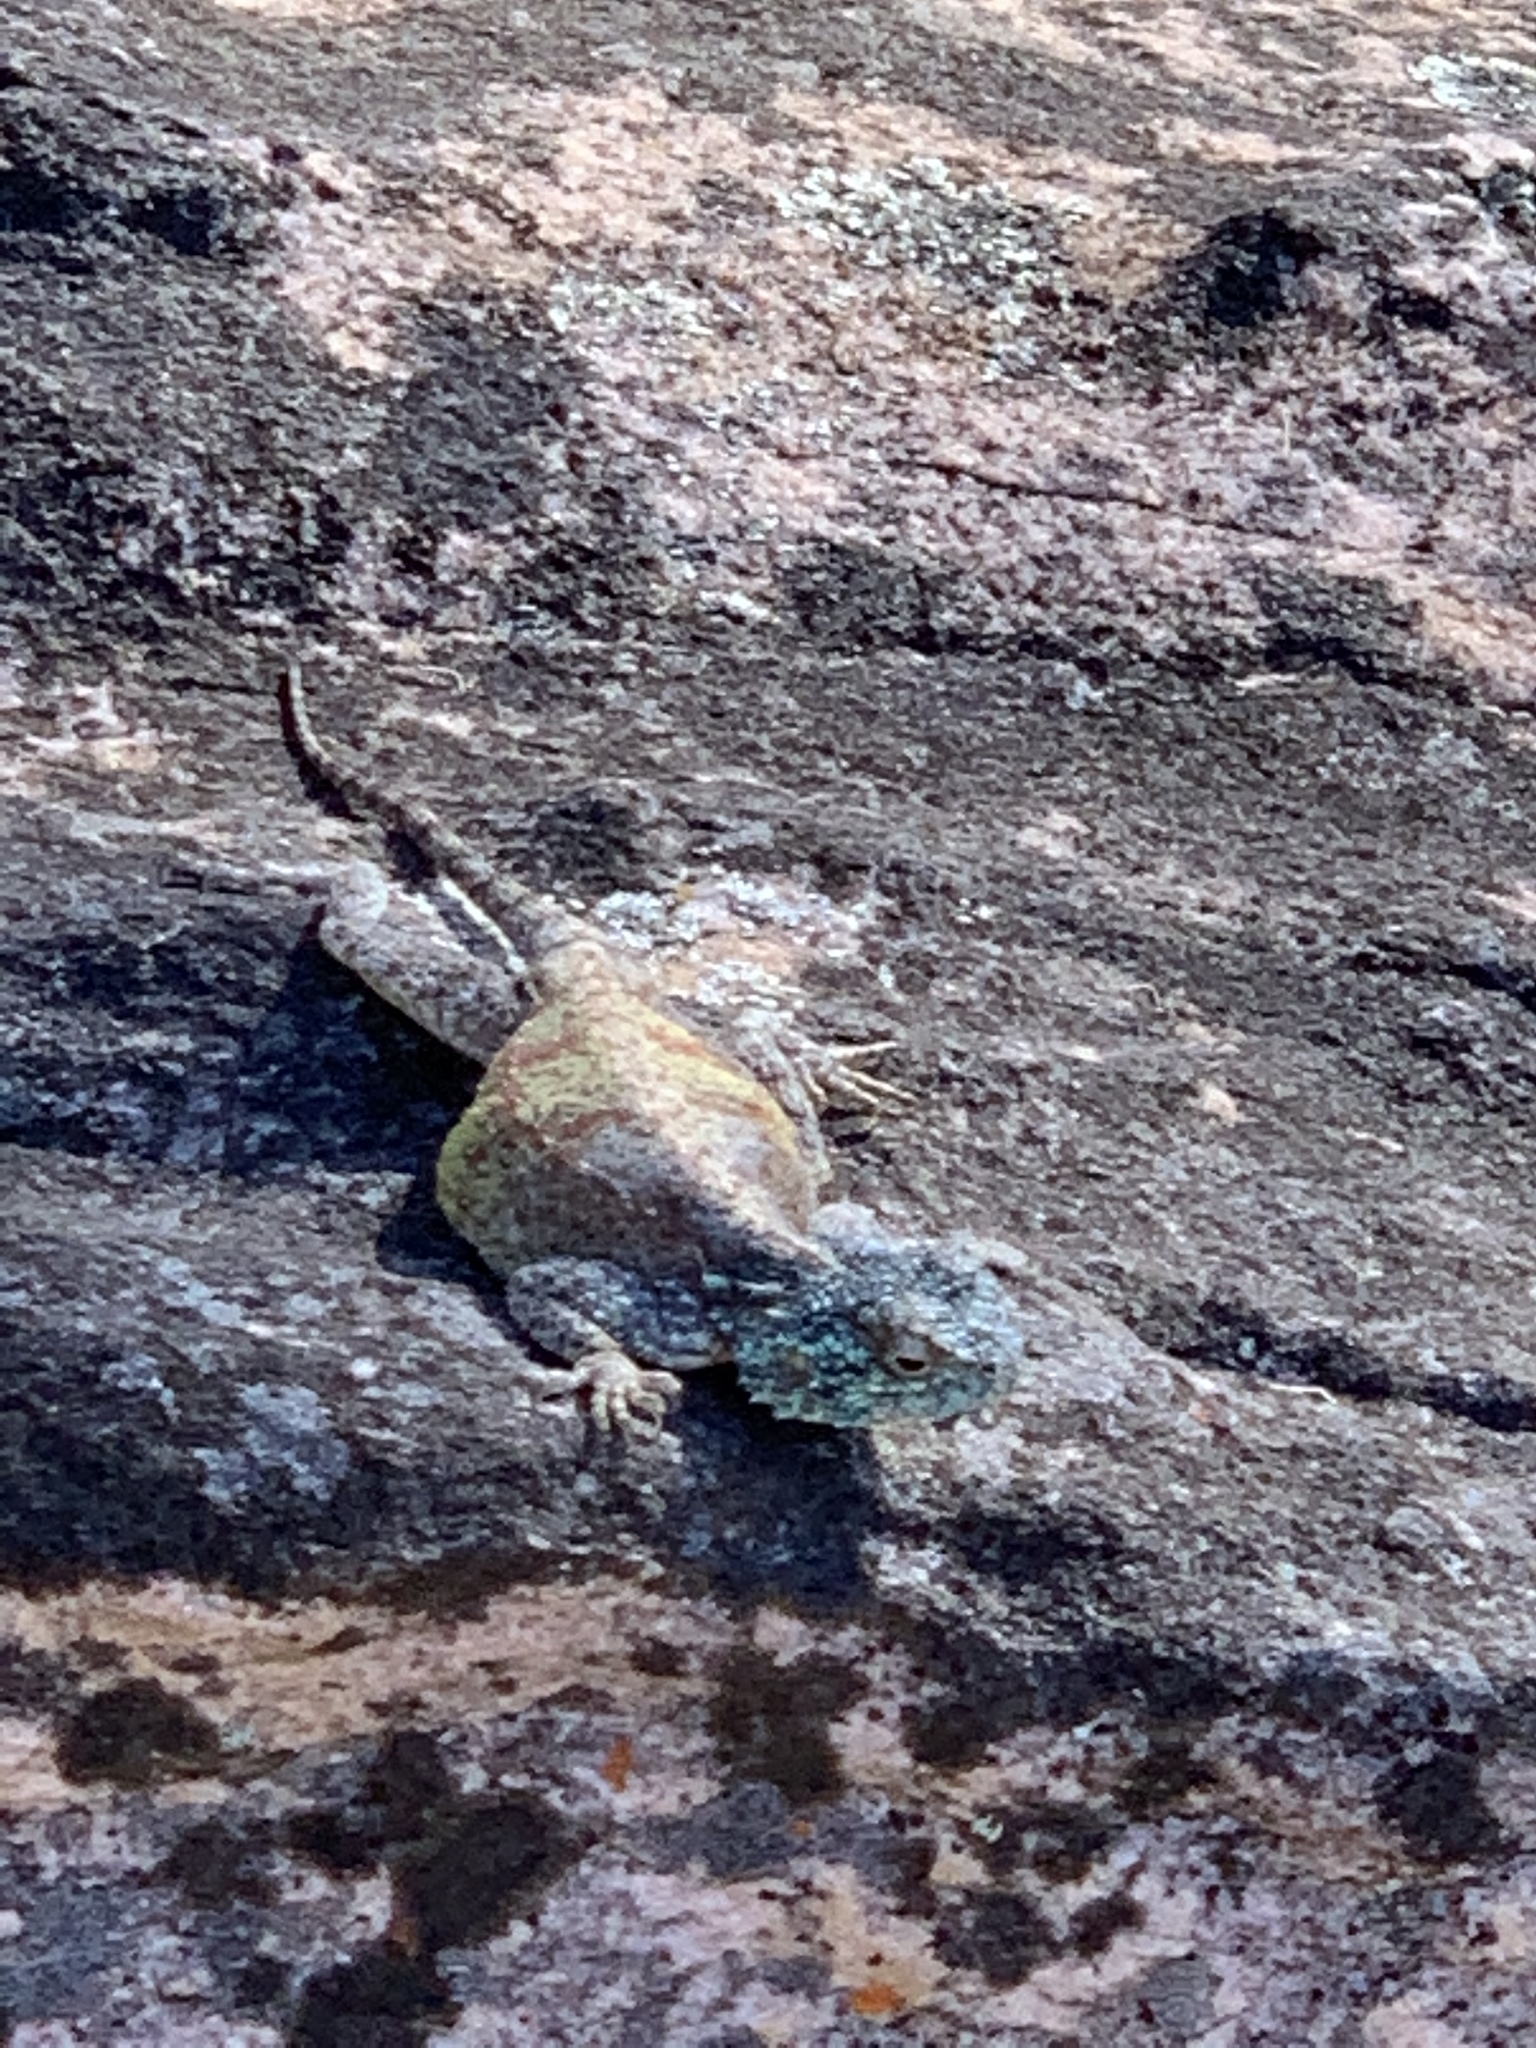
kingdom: Animalia
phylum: Chordata
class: Squamata
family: Agamidae
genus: Agama
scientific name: Agama atra
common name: Southern african rock agama
